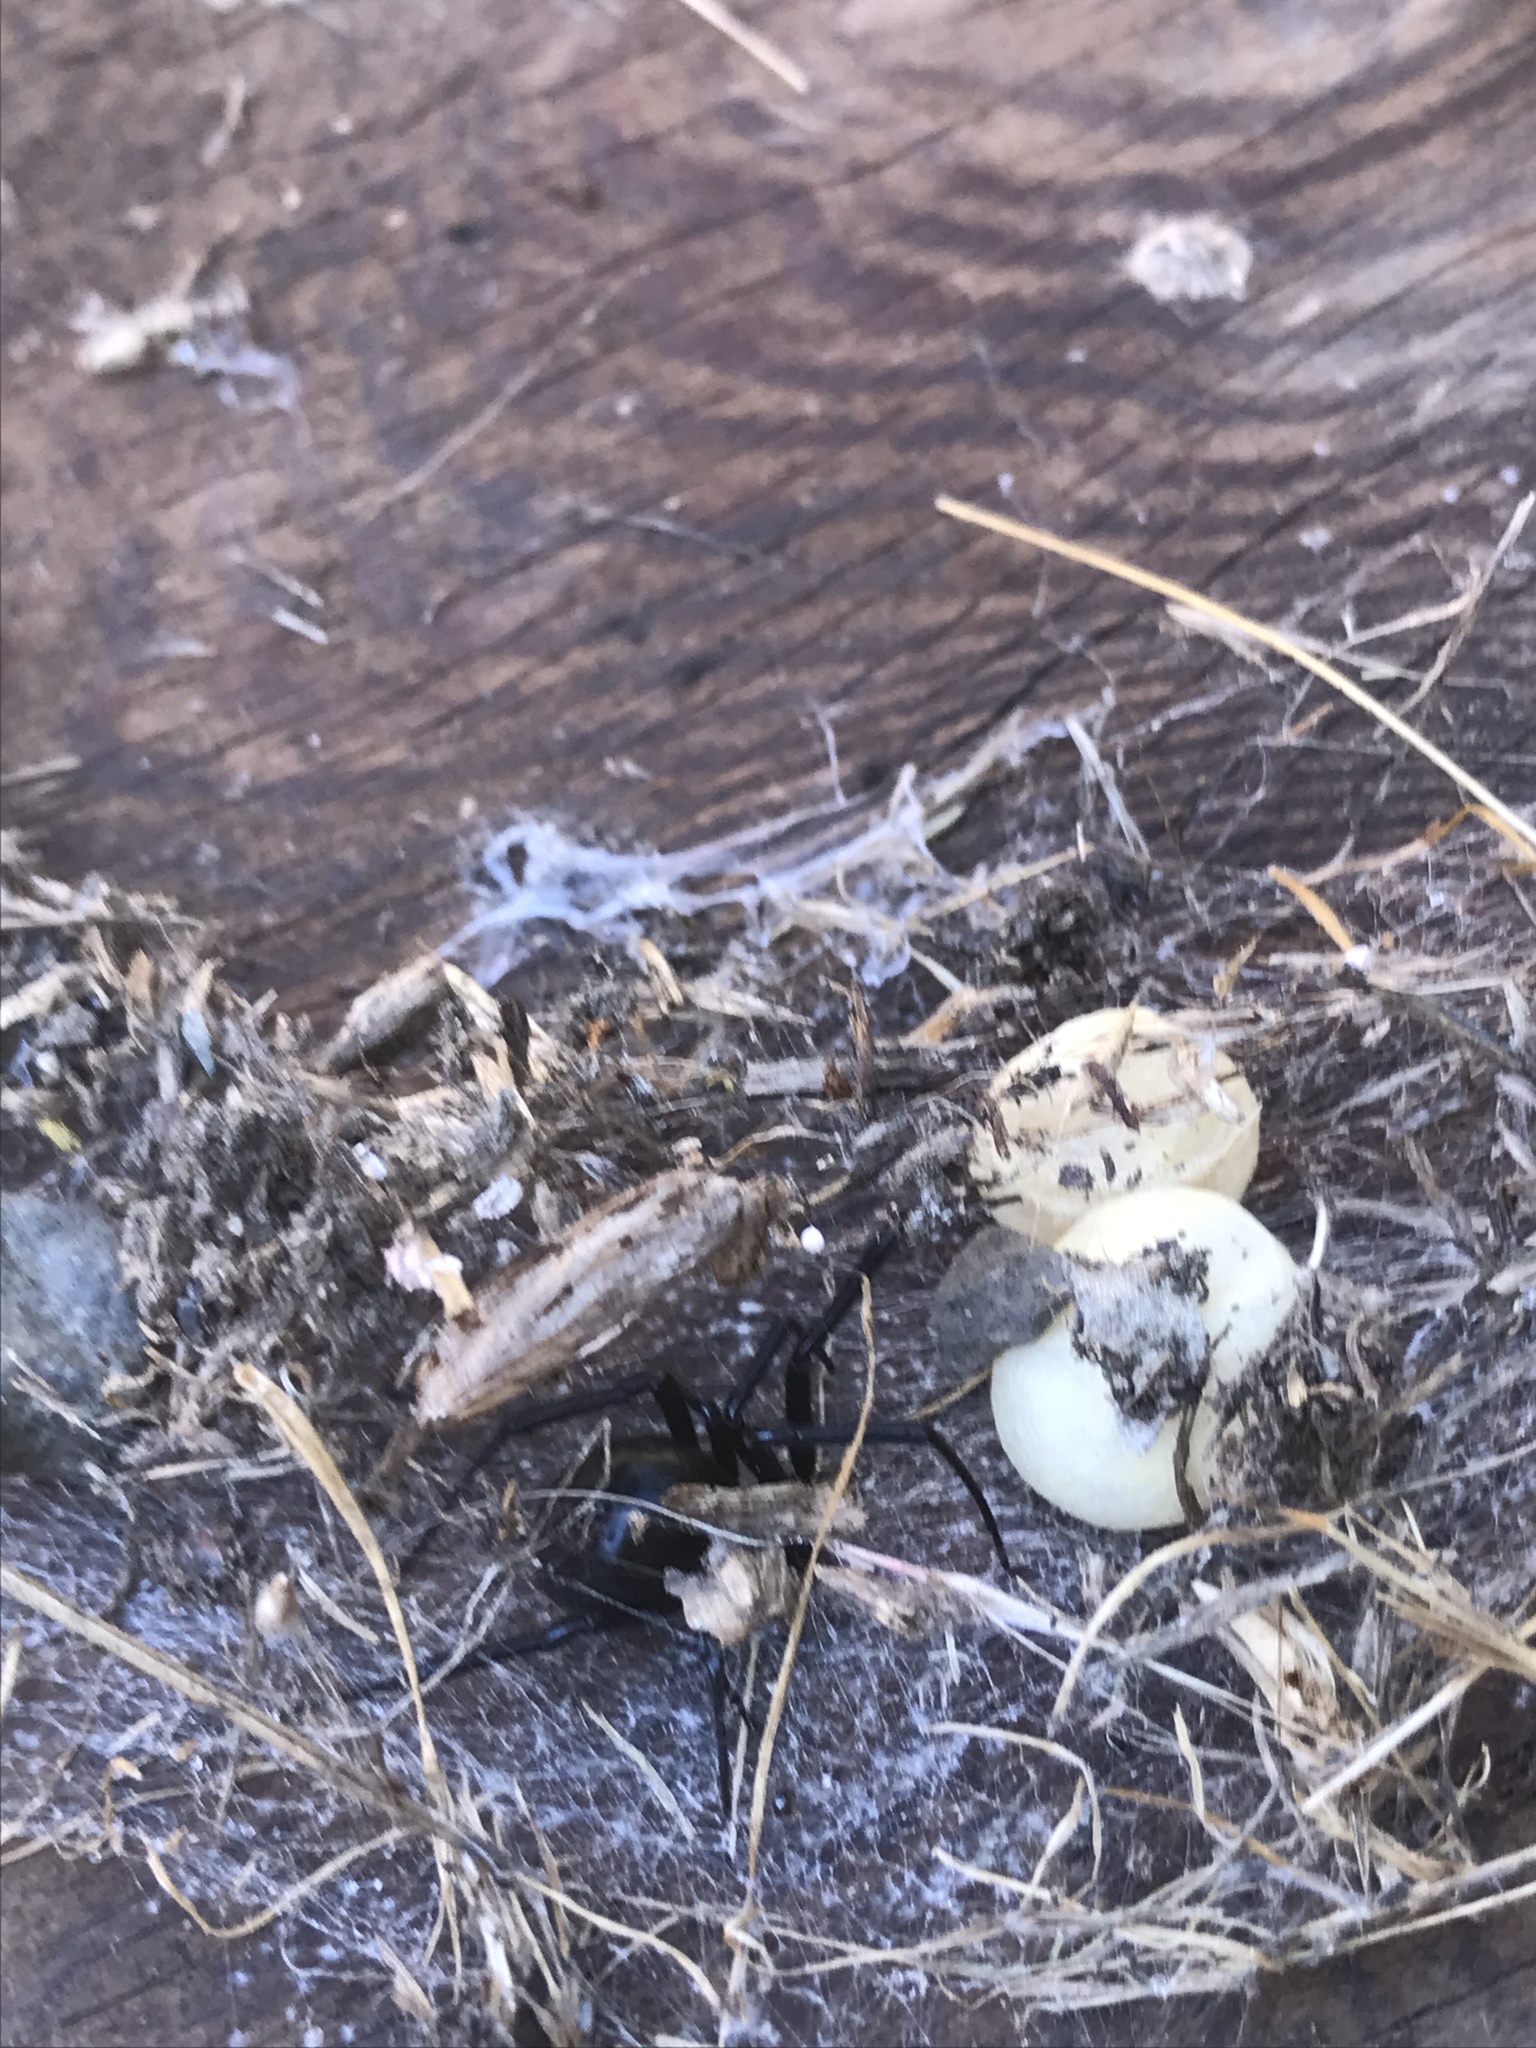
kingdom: Animalia
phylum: Arthropoda
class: Arachnida
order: Araneae
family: Theridiidae
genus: Latrodectus
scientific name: Latrodectus hesperus
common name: Western black widow
